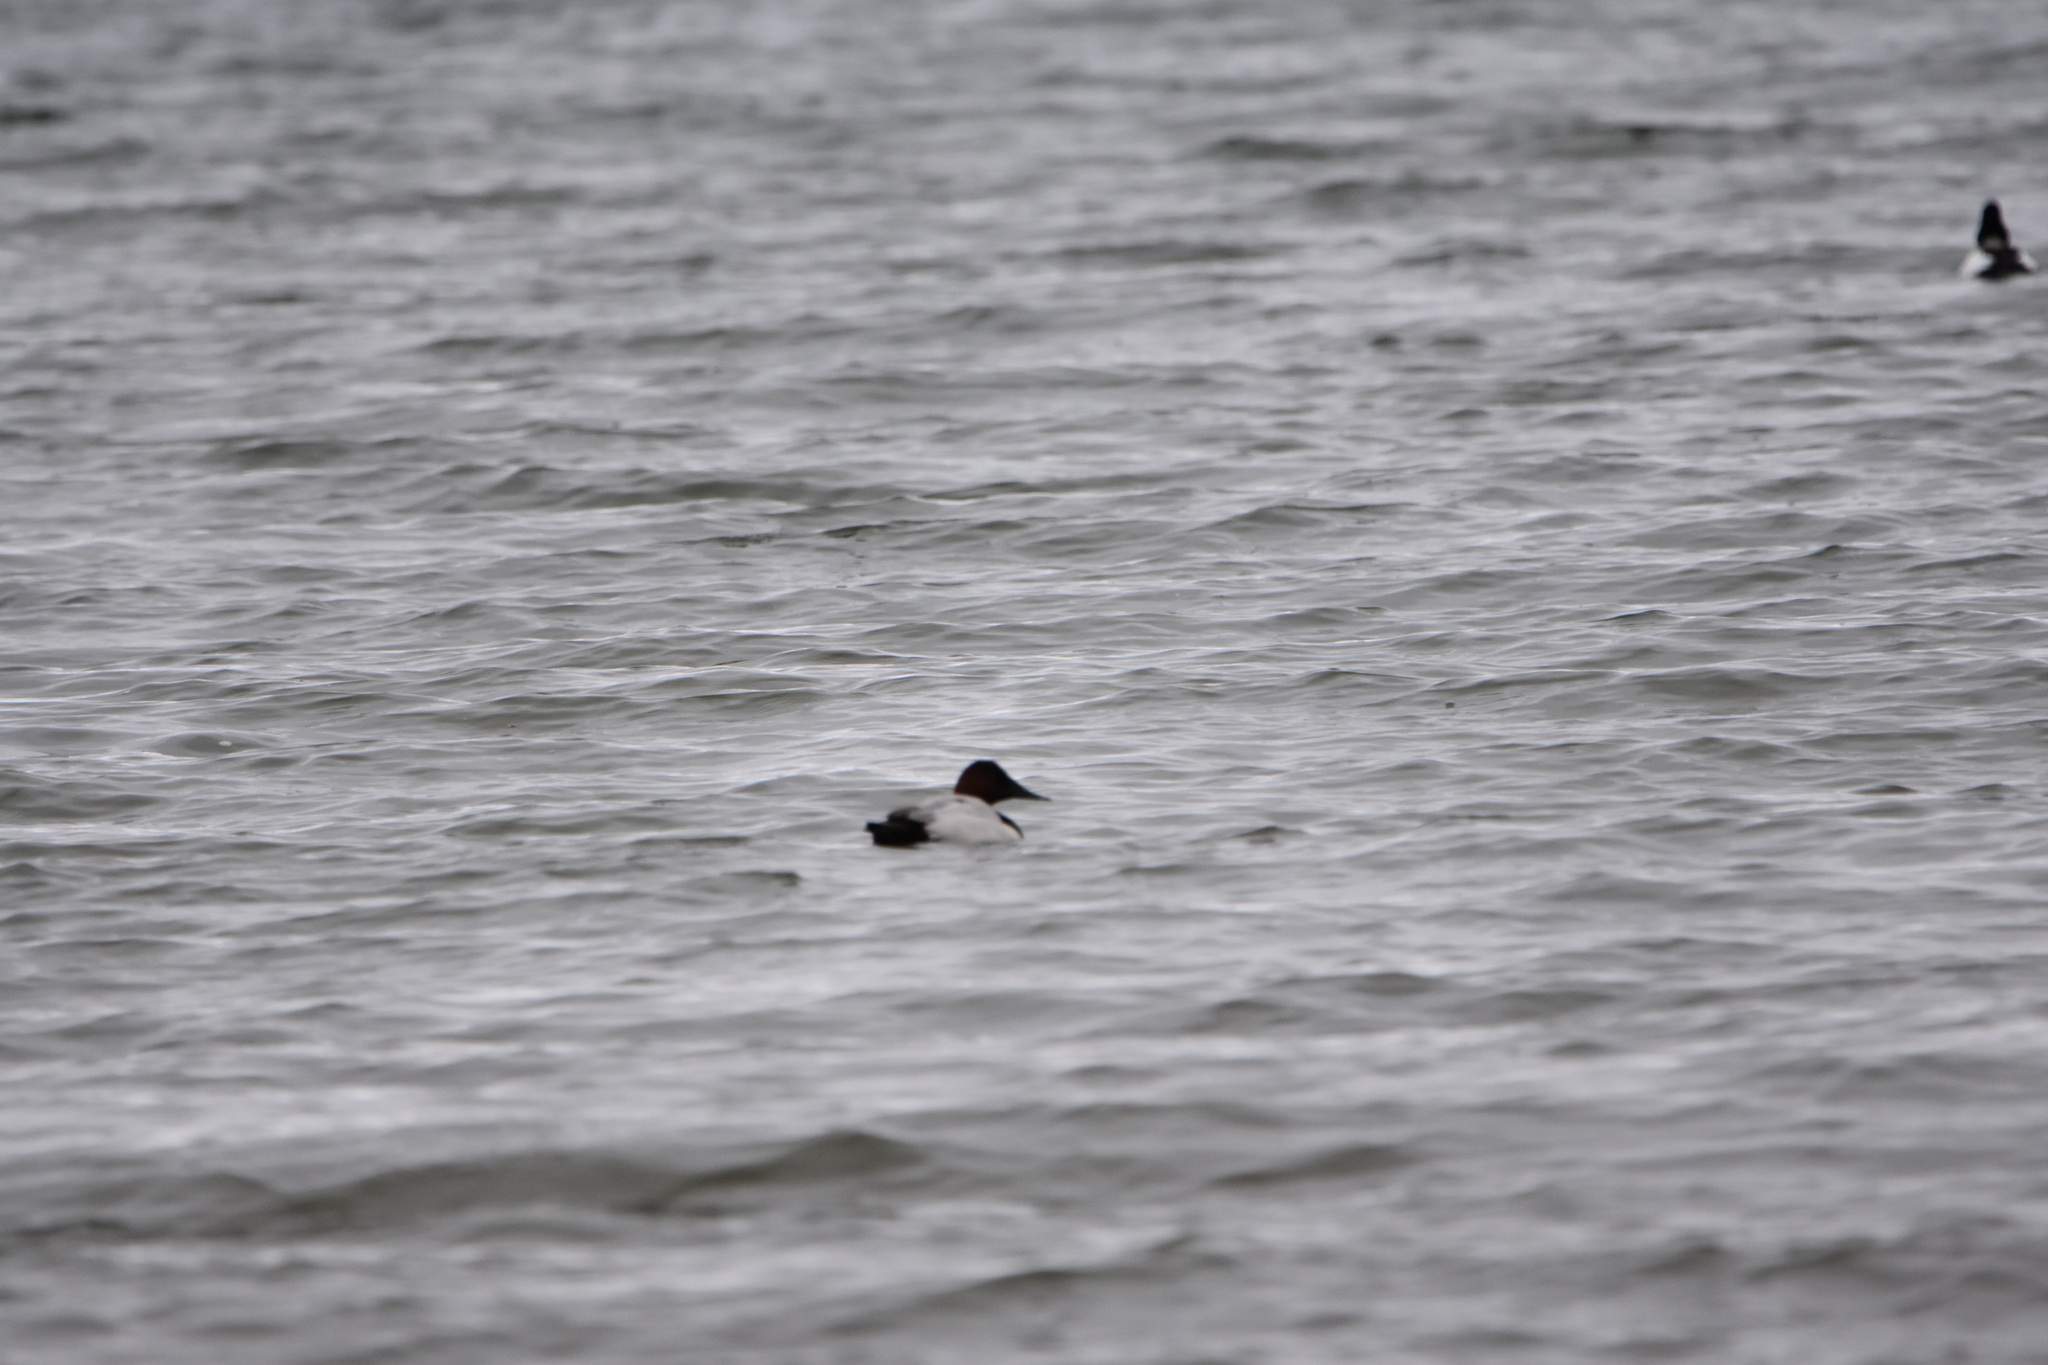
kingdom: Animalia
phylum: Chordata
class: Aves
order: Anseriformes
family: Anatidae
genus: Aythya
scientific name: Aythya valisineria
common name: Canvasback
